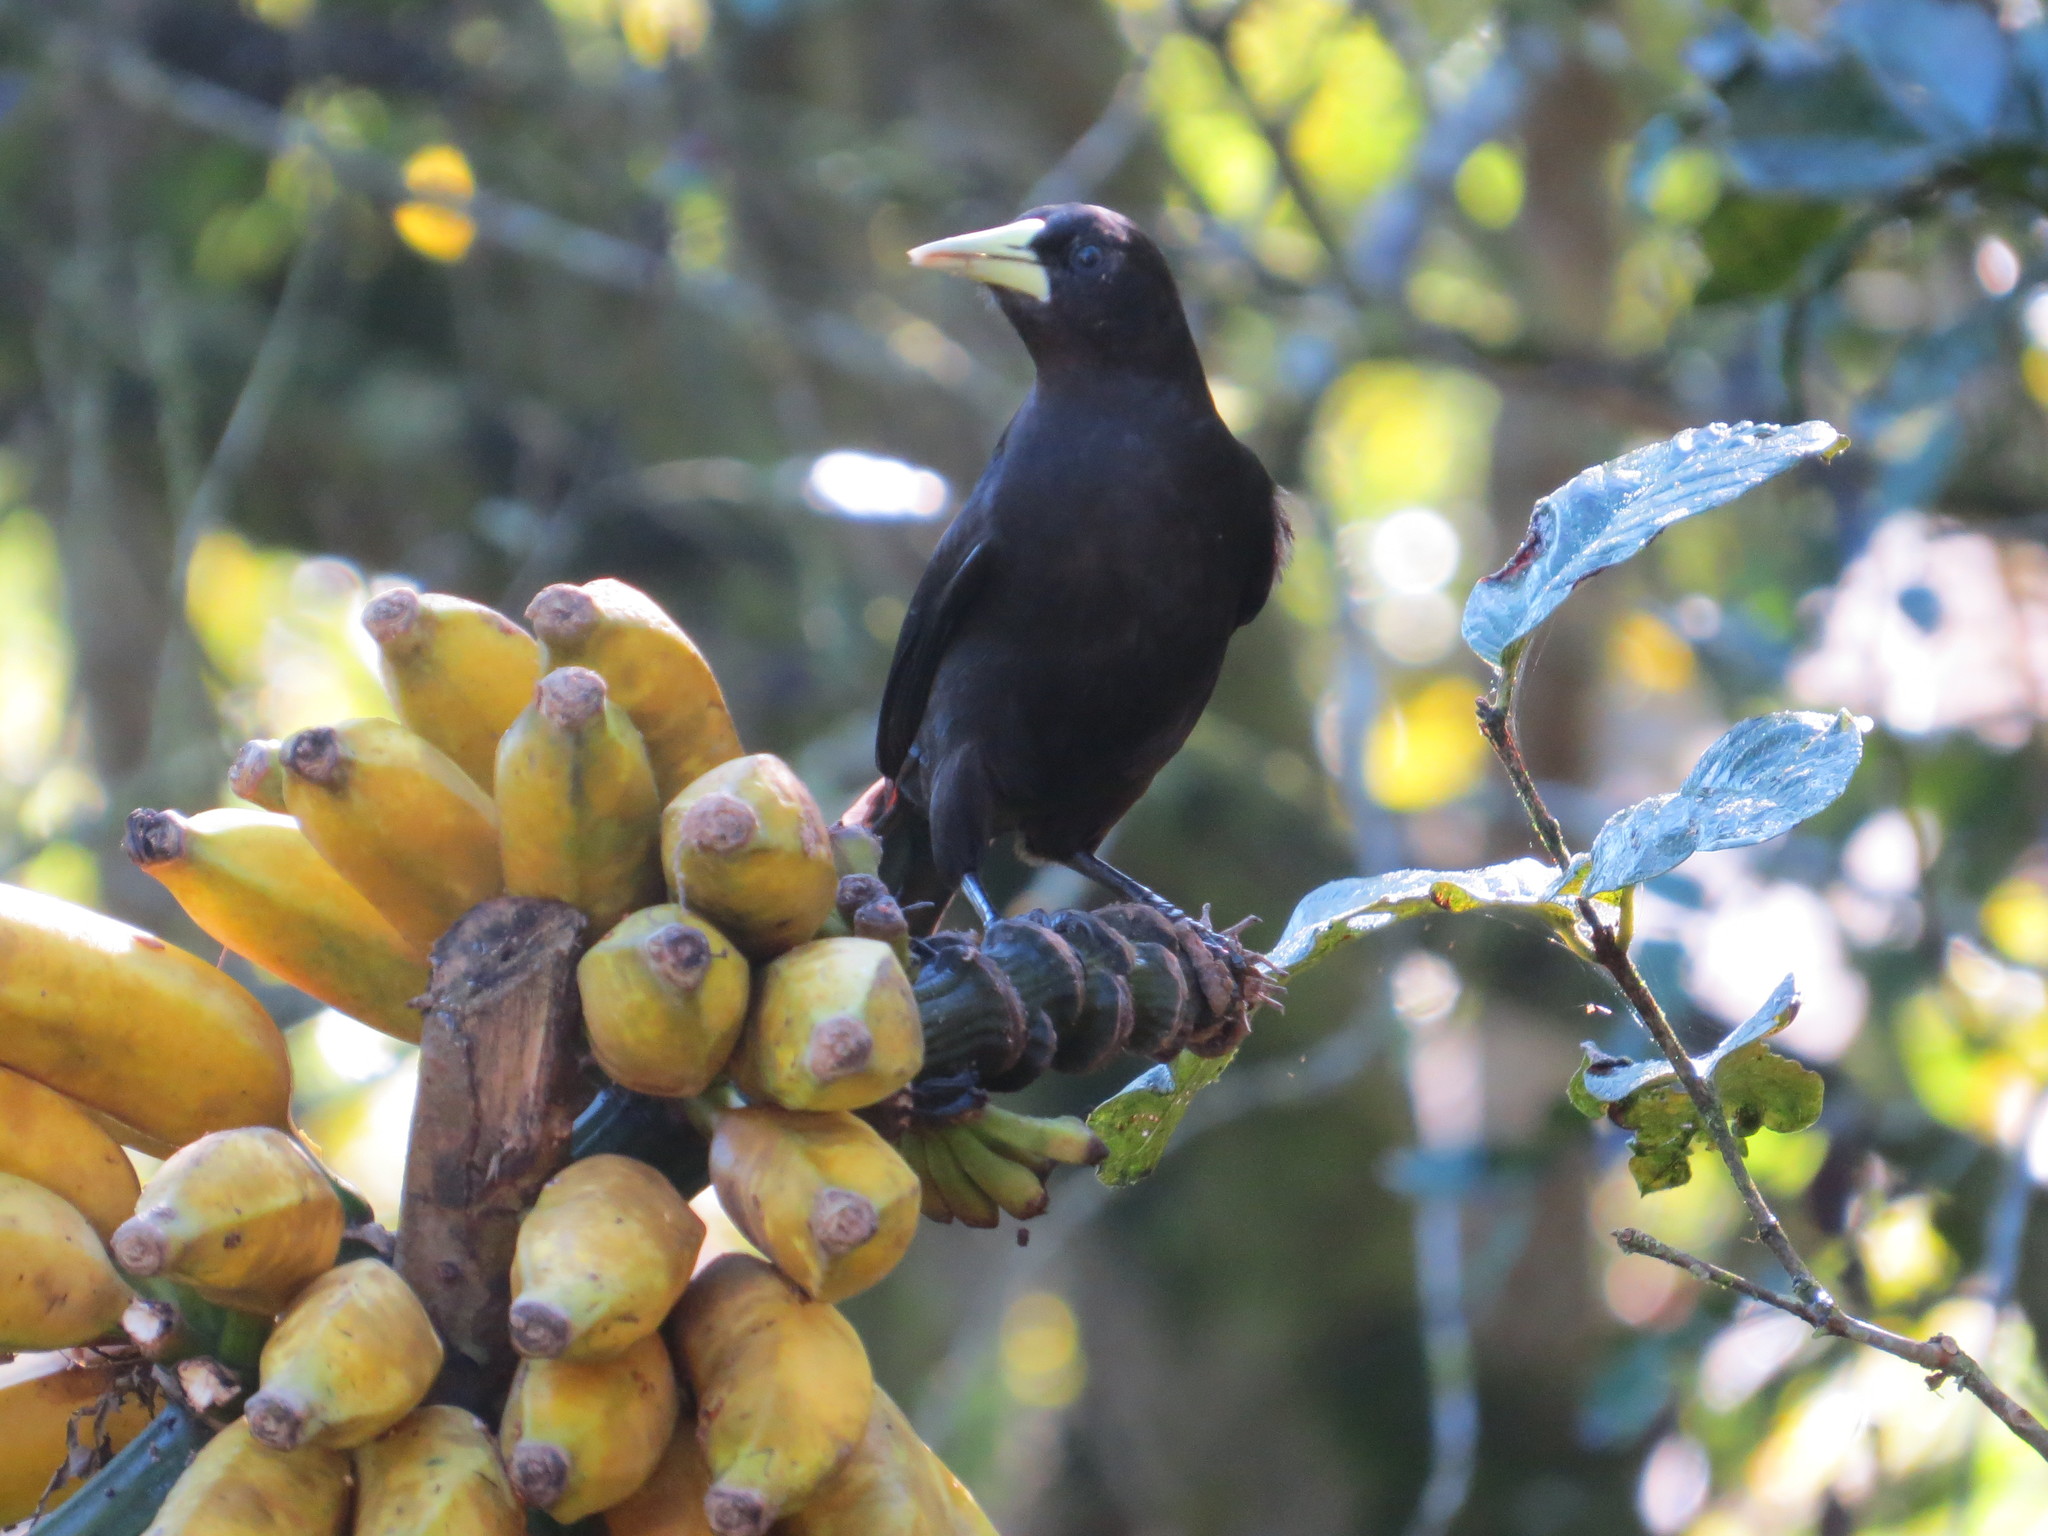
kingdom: Animalia
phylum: Chordata
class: Aves
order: Passeriformes
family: Icteridae
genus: Cacicus
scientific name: Cacicus haemorrhous
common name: Red-rumped cacique
